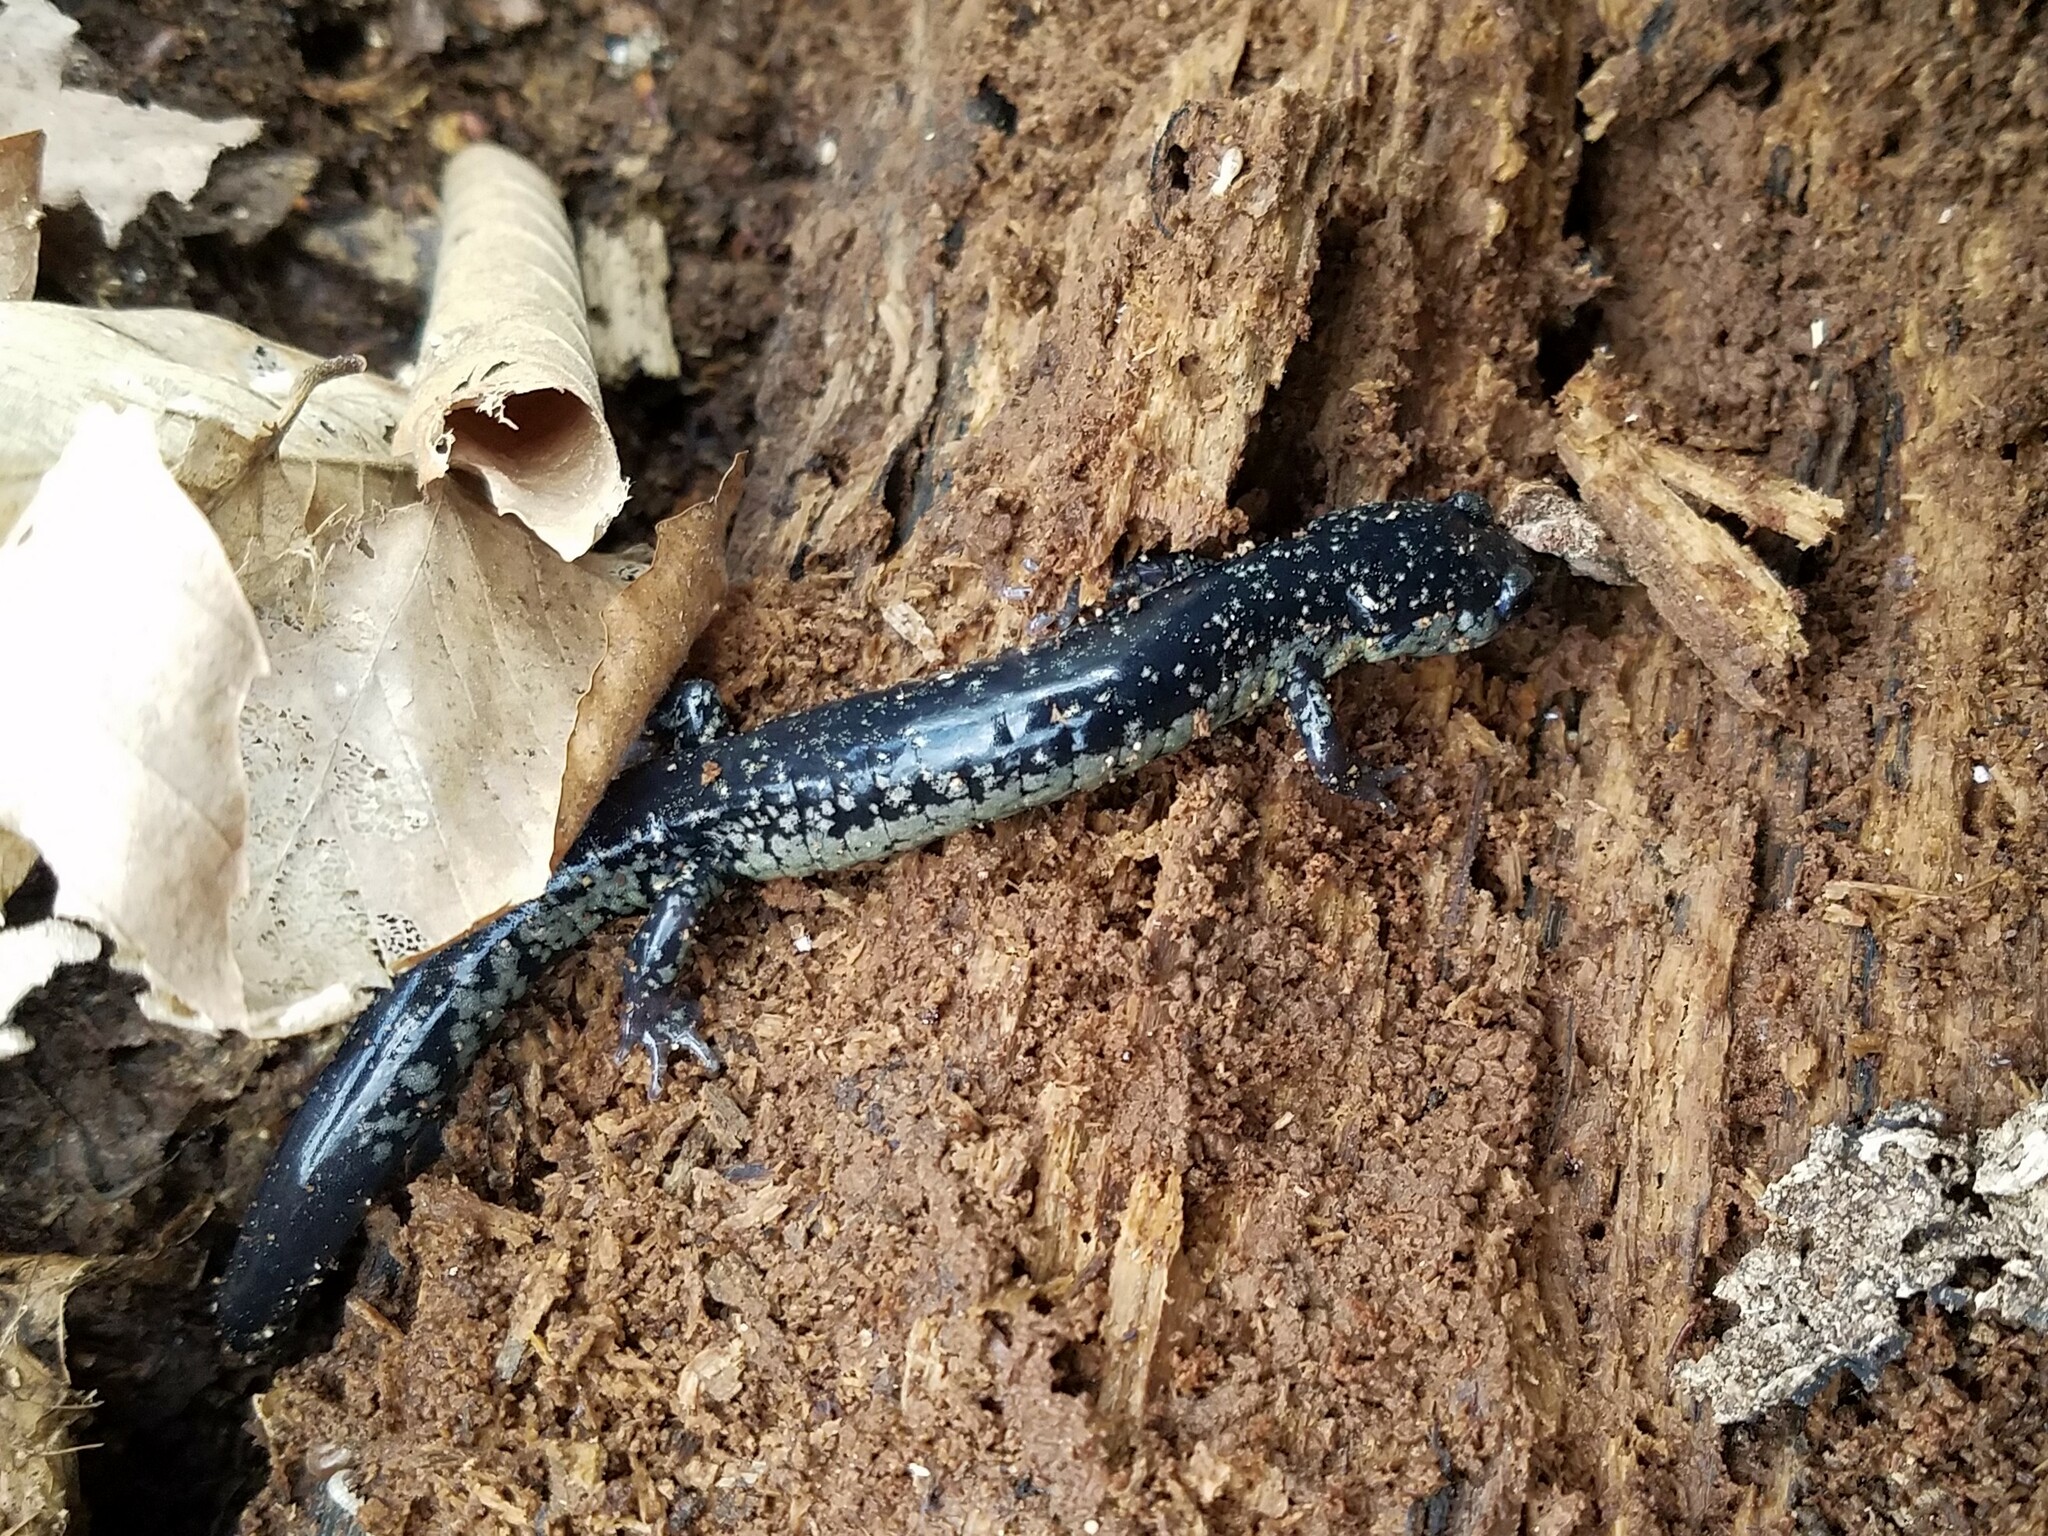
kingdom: Animalia
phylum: Chordata
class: Amphibia
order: Caudata
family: Plethodontidae
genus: Plethodon
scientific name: Plethodon glutinosus
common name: Northern slimy salamander
